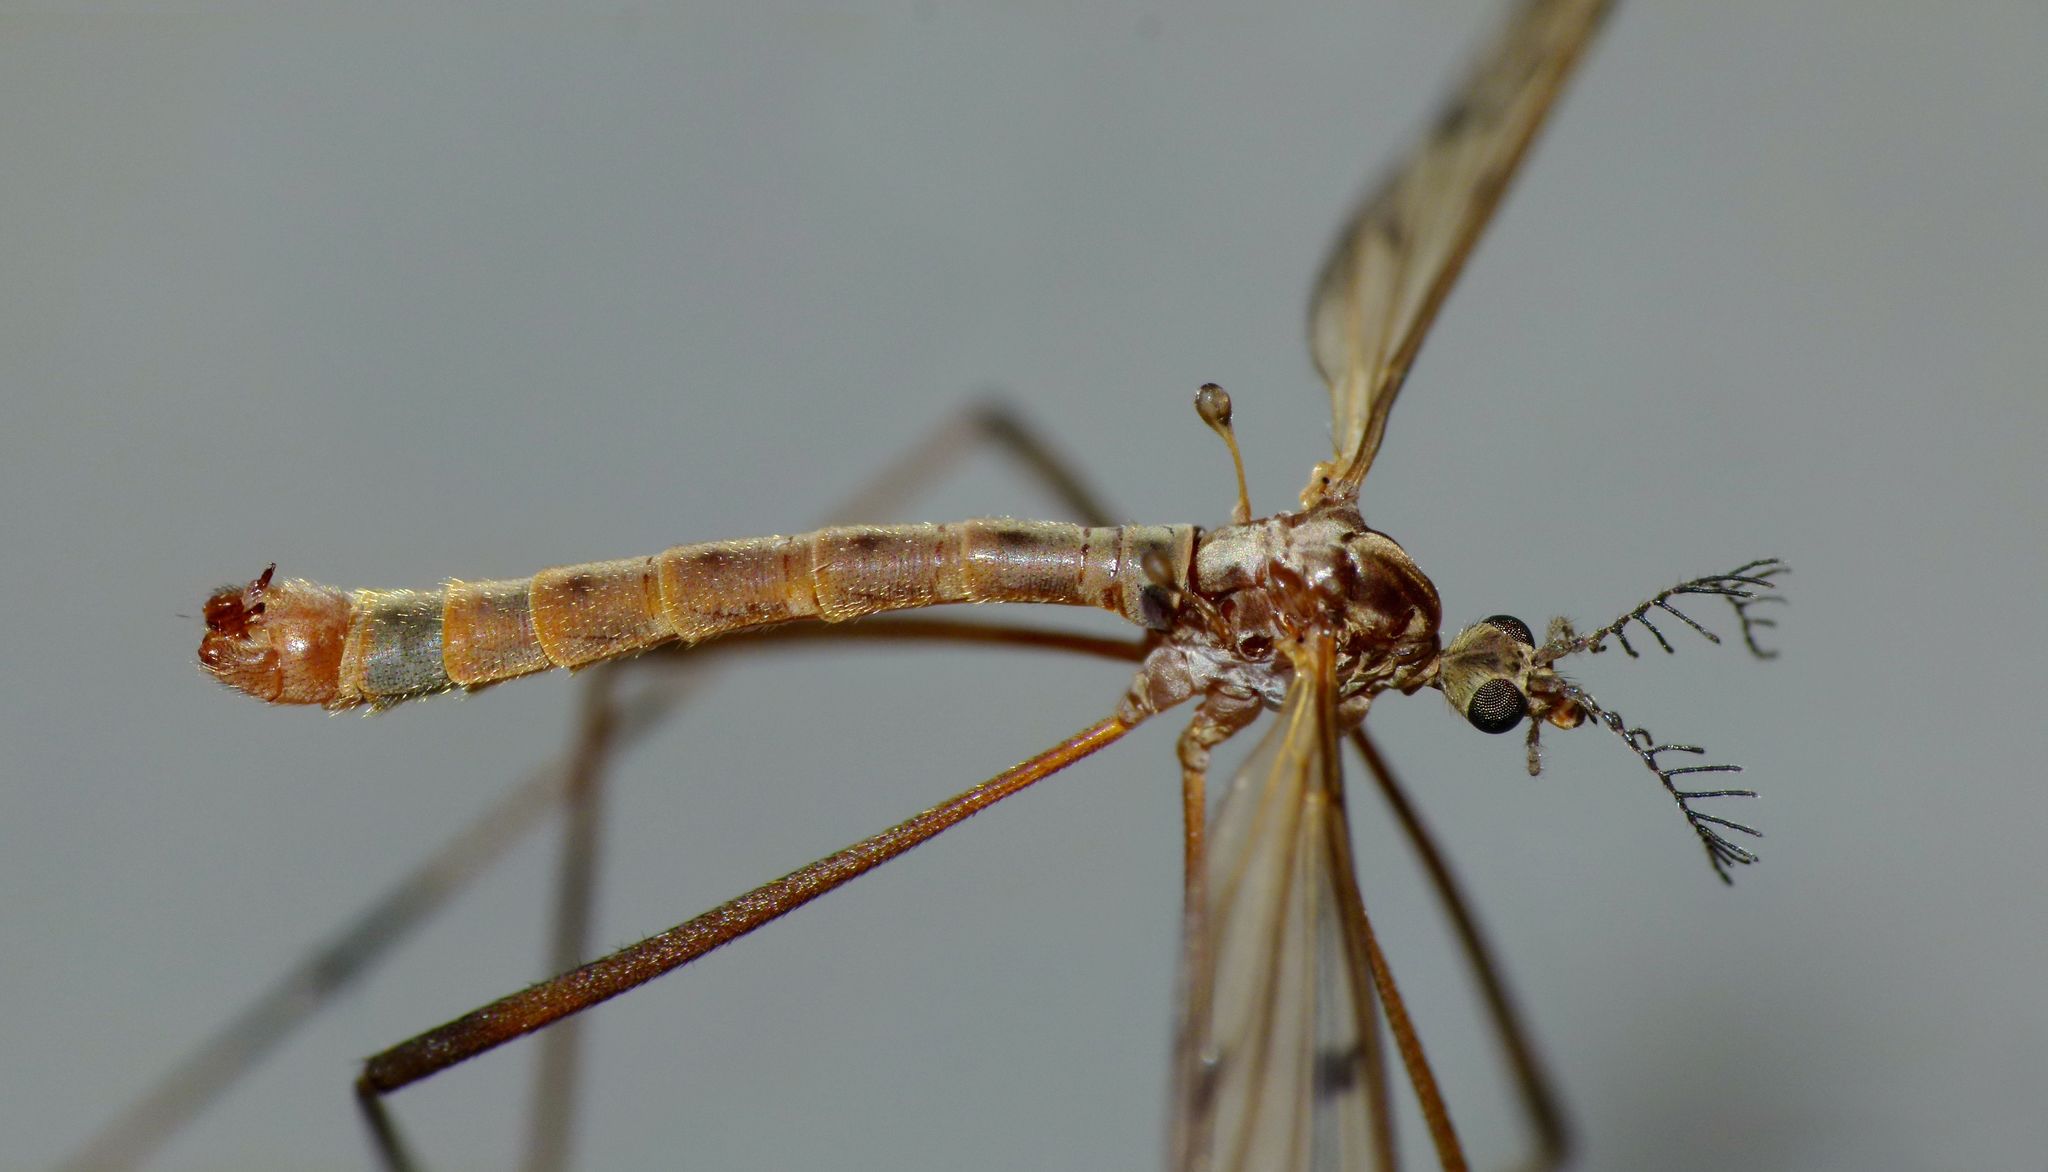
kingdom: Animalia
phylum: Arthropoda
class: Insecta
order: Diptera
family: Limoniidae
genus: Gynoplistia
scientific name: Gynoplistia inconjuncta
